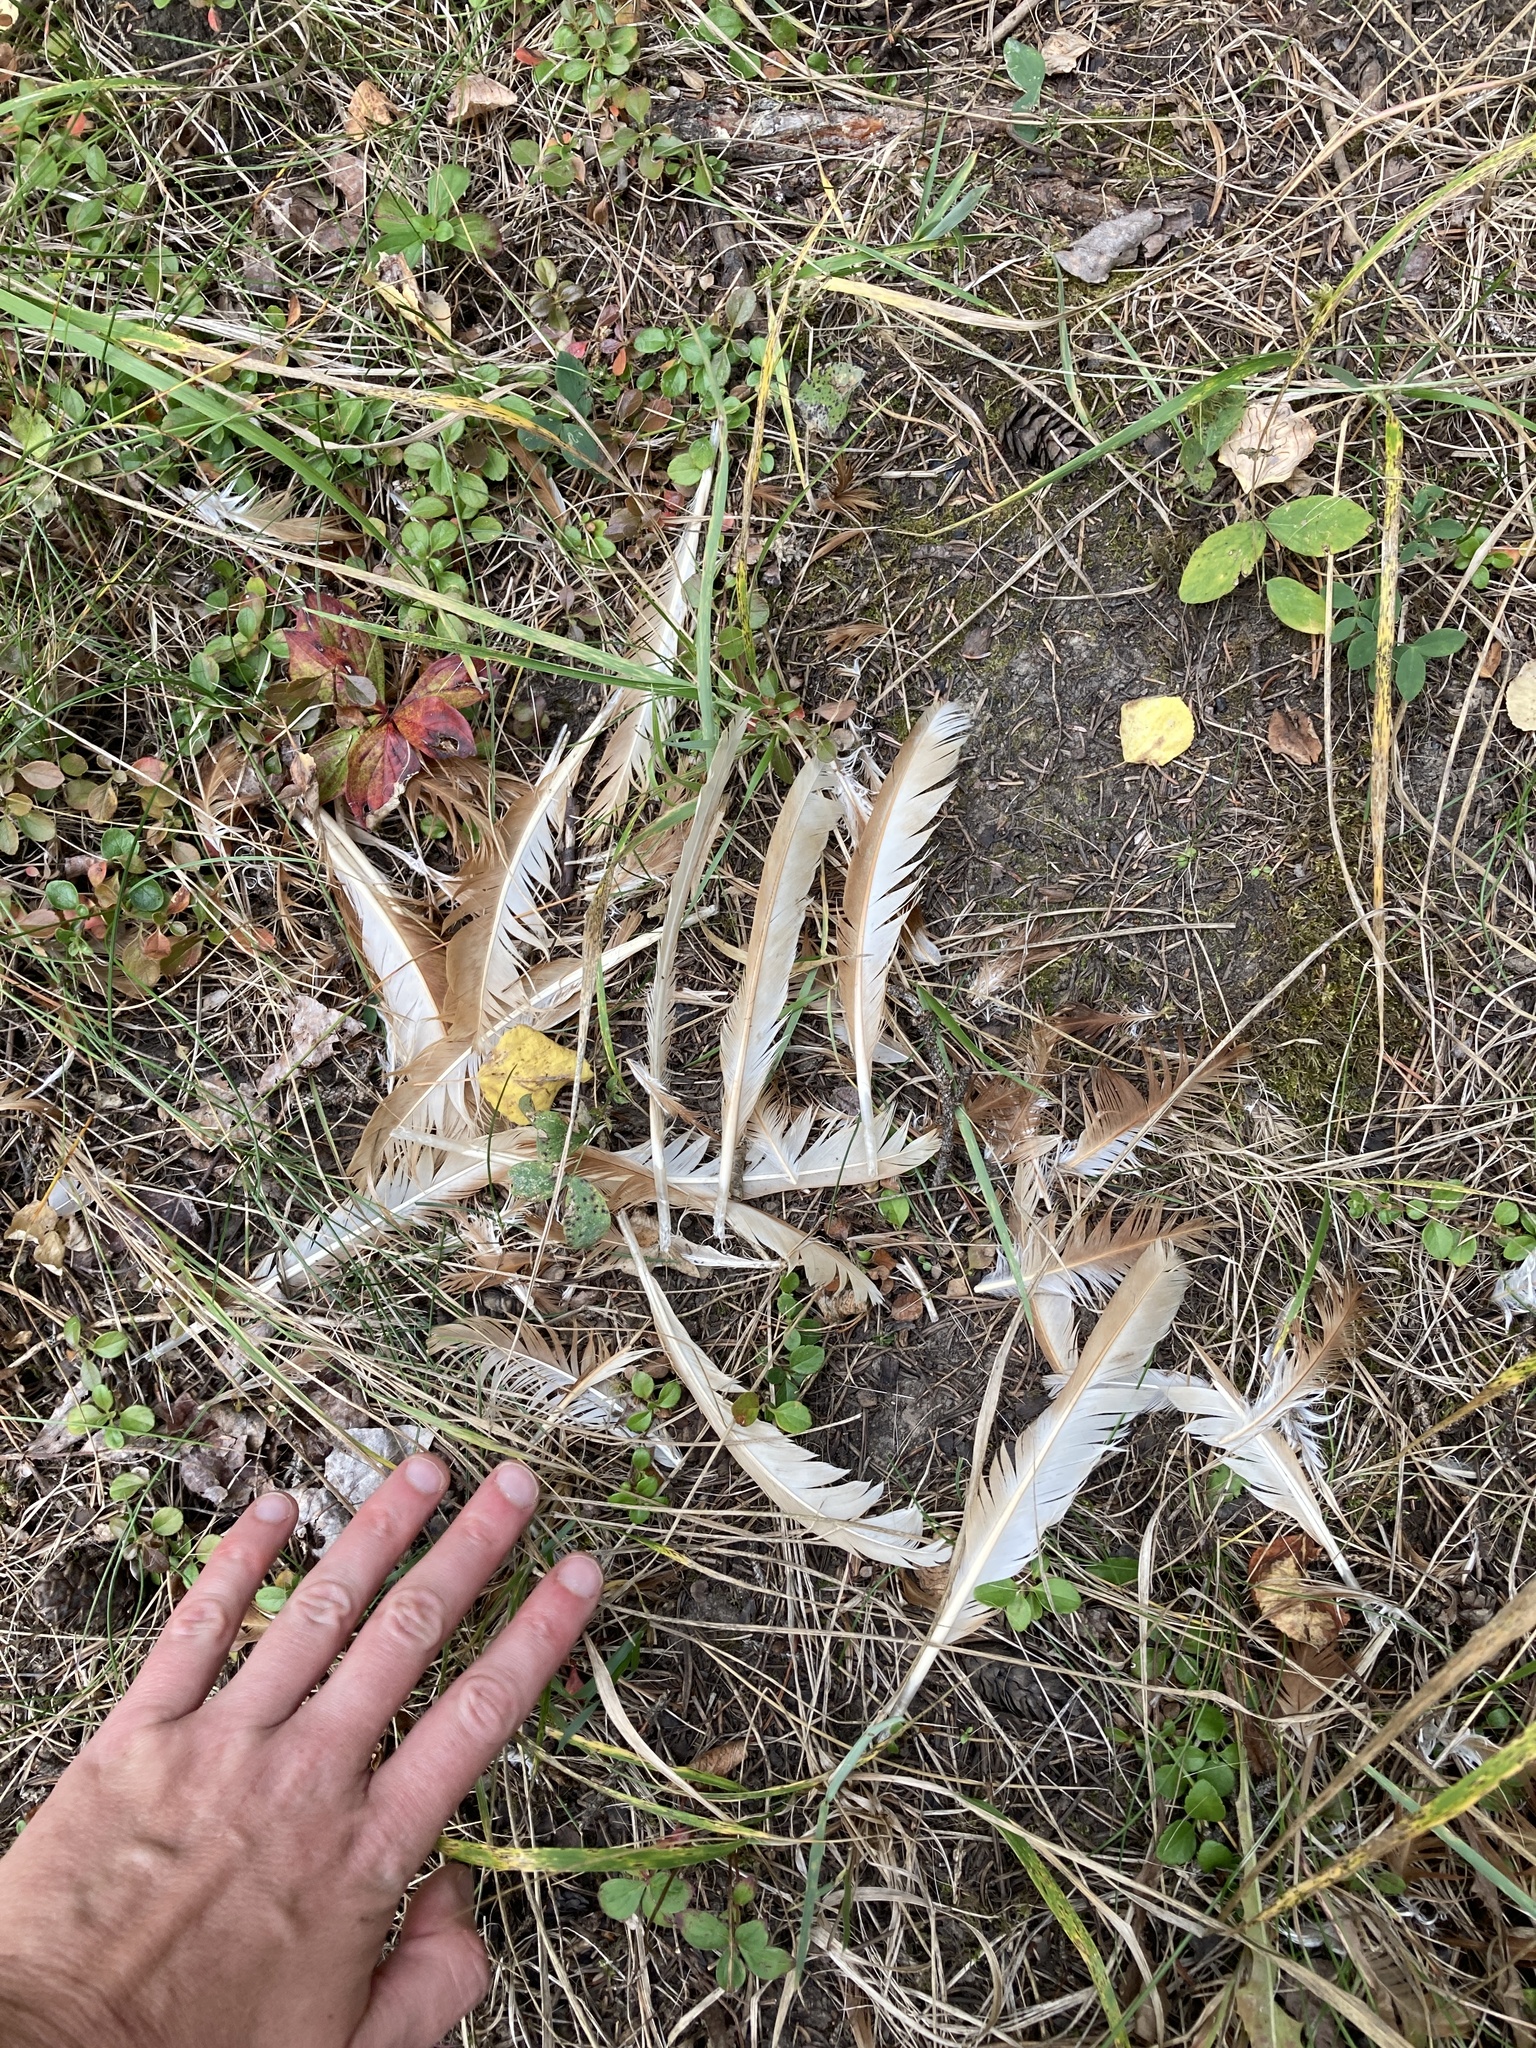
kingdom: Animalia
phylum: Chordata
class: Aves
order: Galliformes
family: Phasianidae
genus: Gallus
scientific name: Gallus gallus
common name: Red junglefowl
